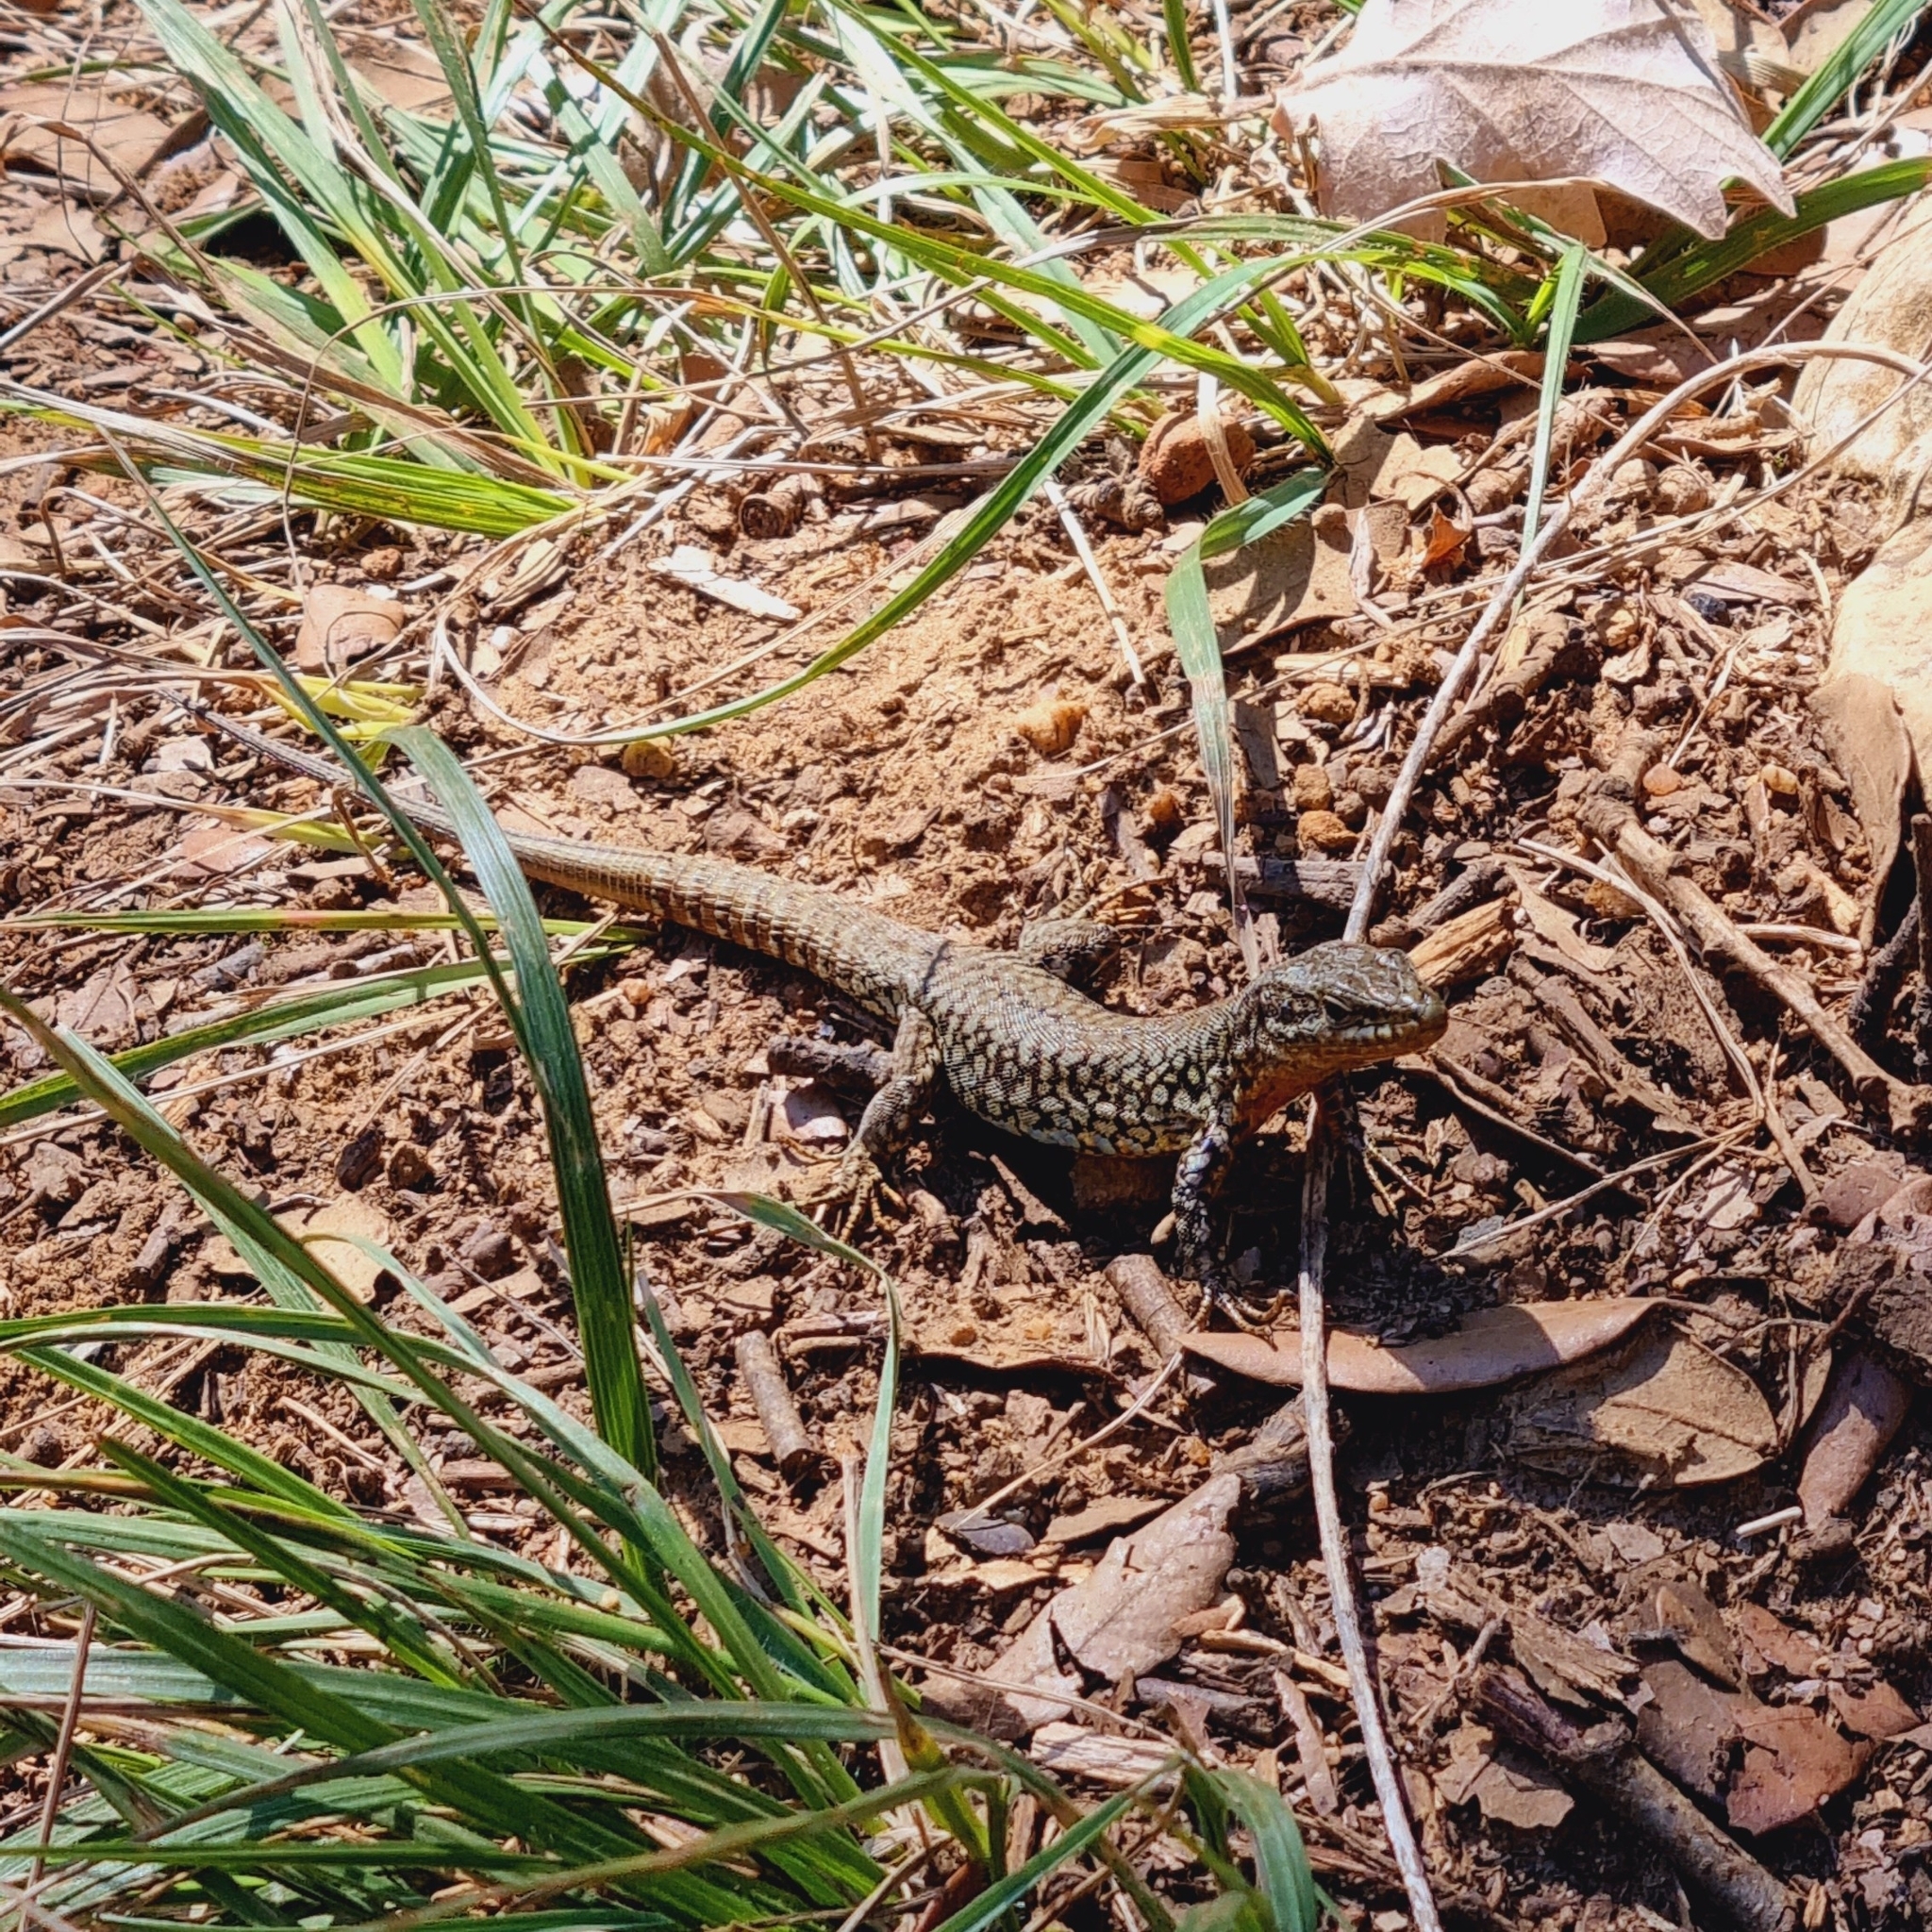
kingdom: Animalia
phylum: Chordata
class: Squamata
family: Lacertidae
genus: Podarcis
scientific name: Podarcis muralis
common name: Common wall lizard
